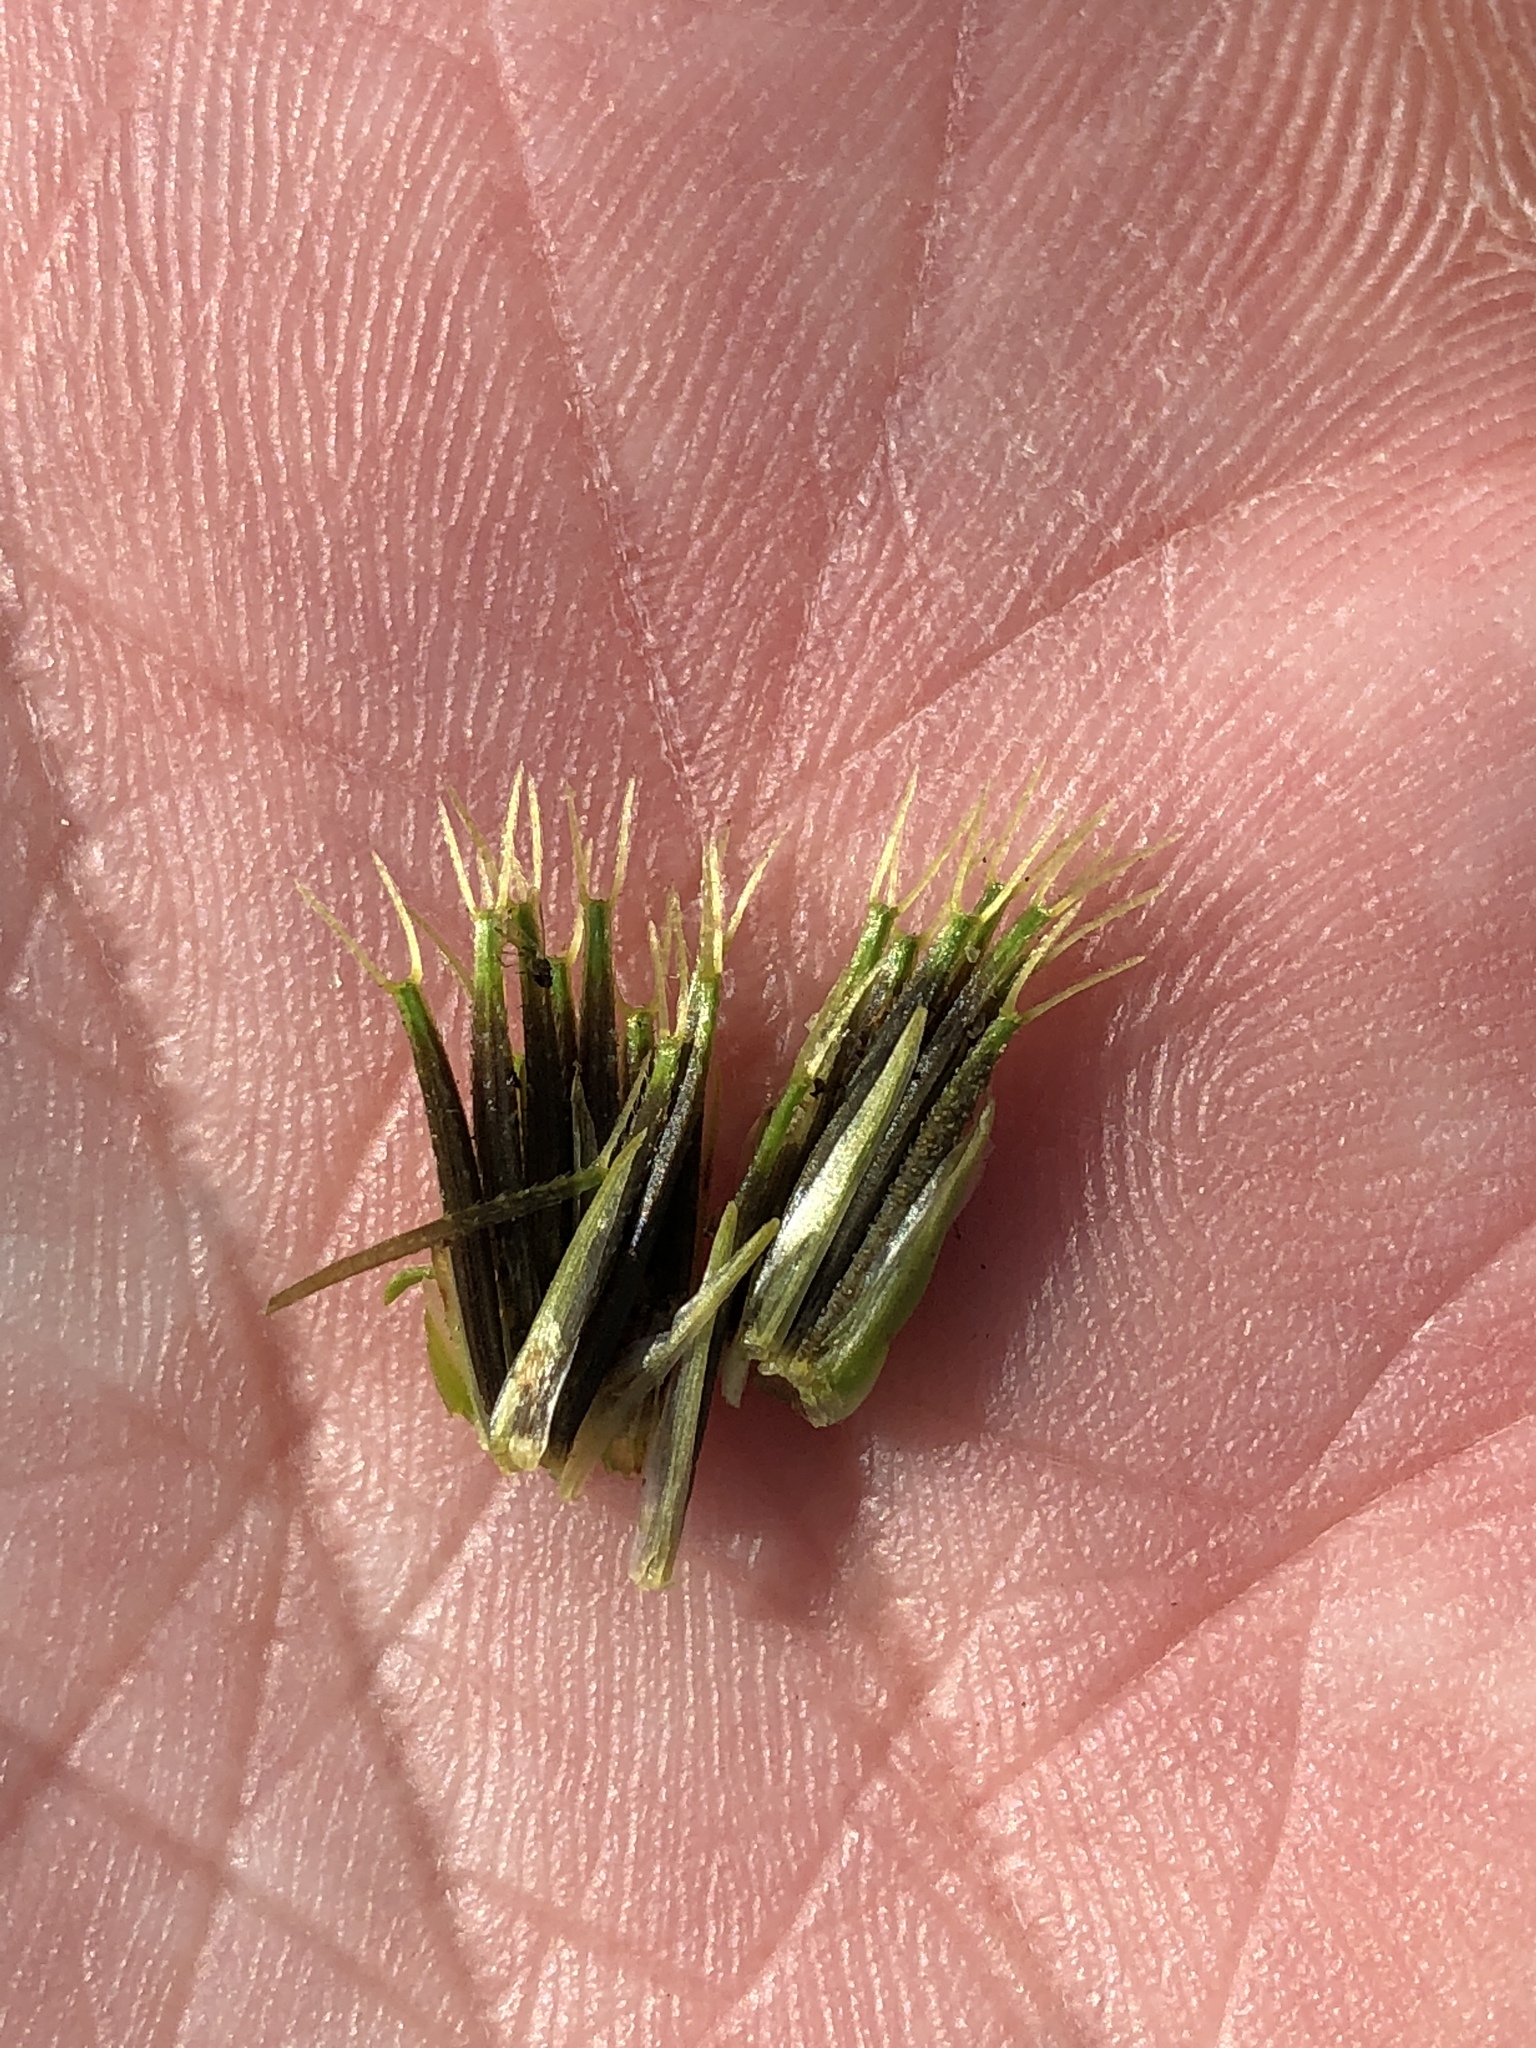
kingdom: Plantae
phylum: Tracheophyta
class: Magnoliopsida
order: Asterales
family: Asteraceae
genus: Bidens
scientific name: Bidens alba
